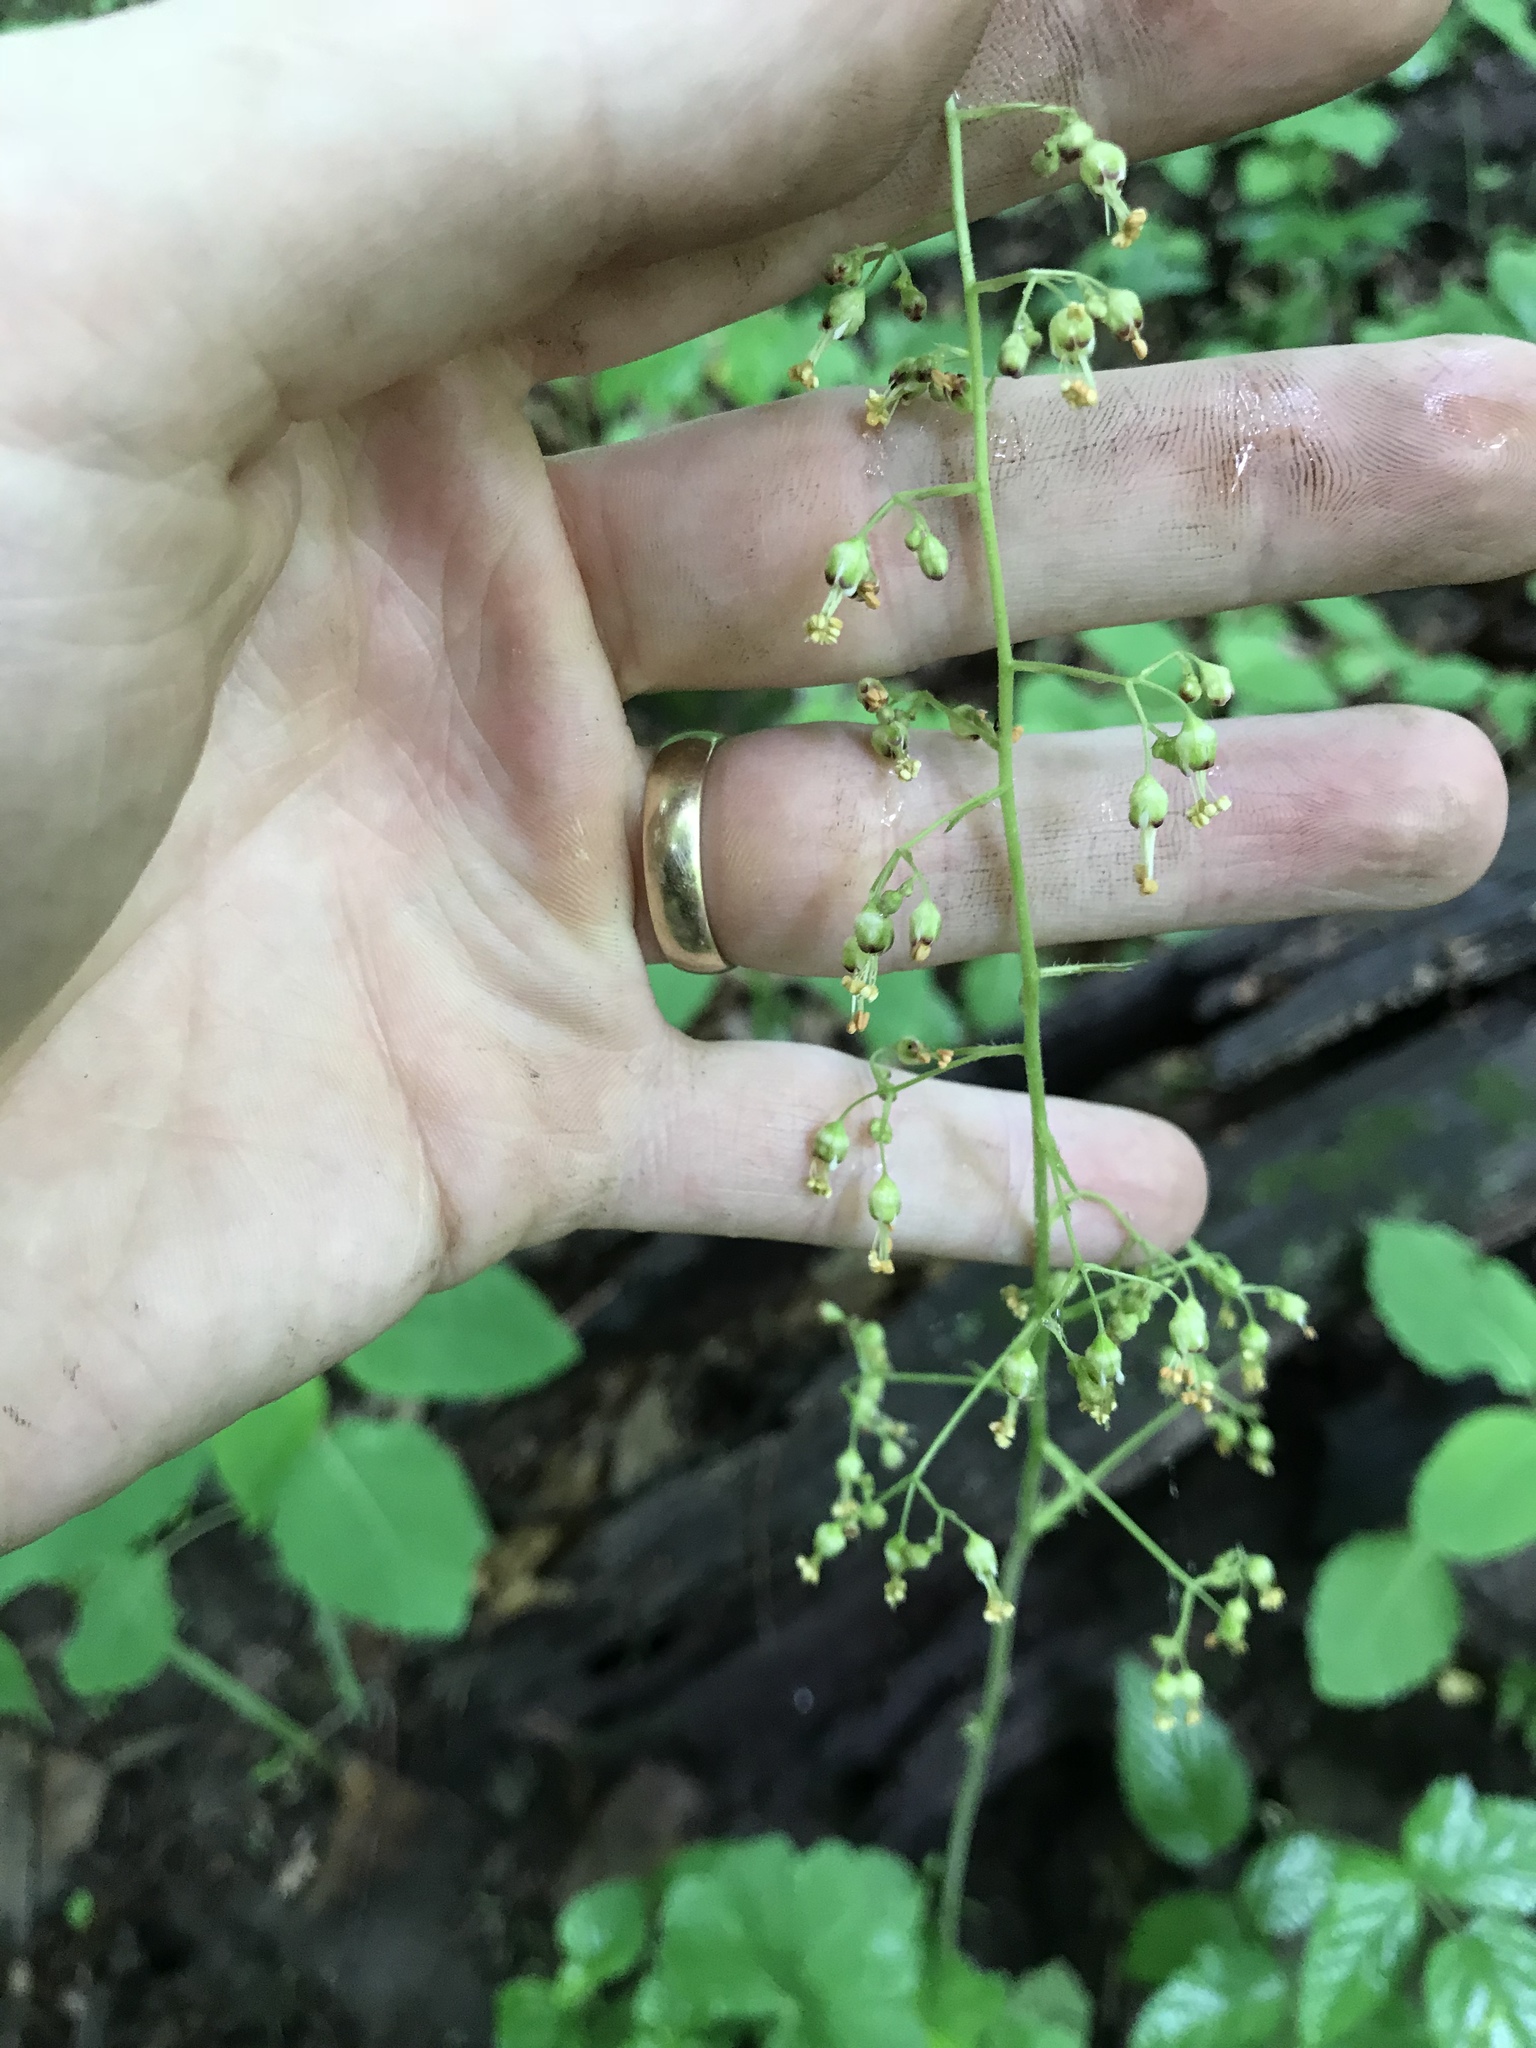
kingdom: Plantae
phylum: Tracheophyta
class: Magnoliopsida
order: Saxifragales
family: Saxifragaceae
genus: Heuchera
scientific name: Heuchera americana
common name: Alumroot
